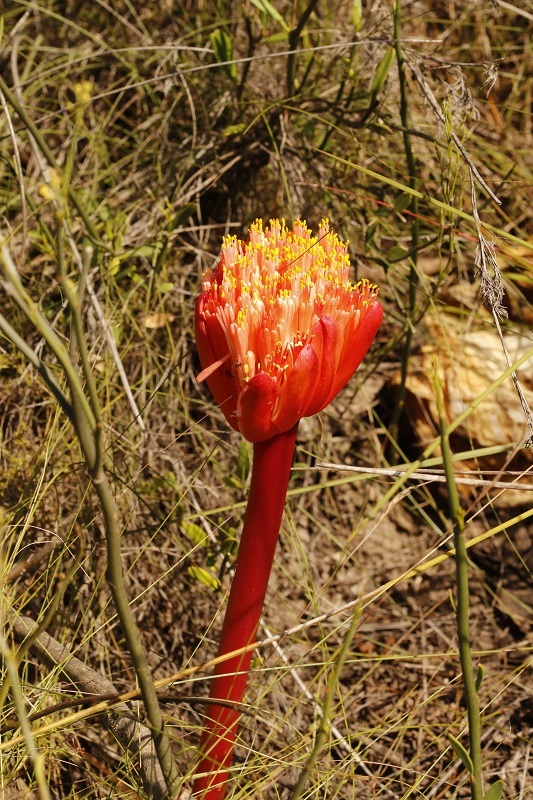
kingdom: Plantae
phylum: Tracheophyta
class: Liliopsida
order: Asparagales
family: Amaryllidaceae
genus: Haemanthus
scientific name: Haemanthus sanguineus
